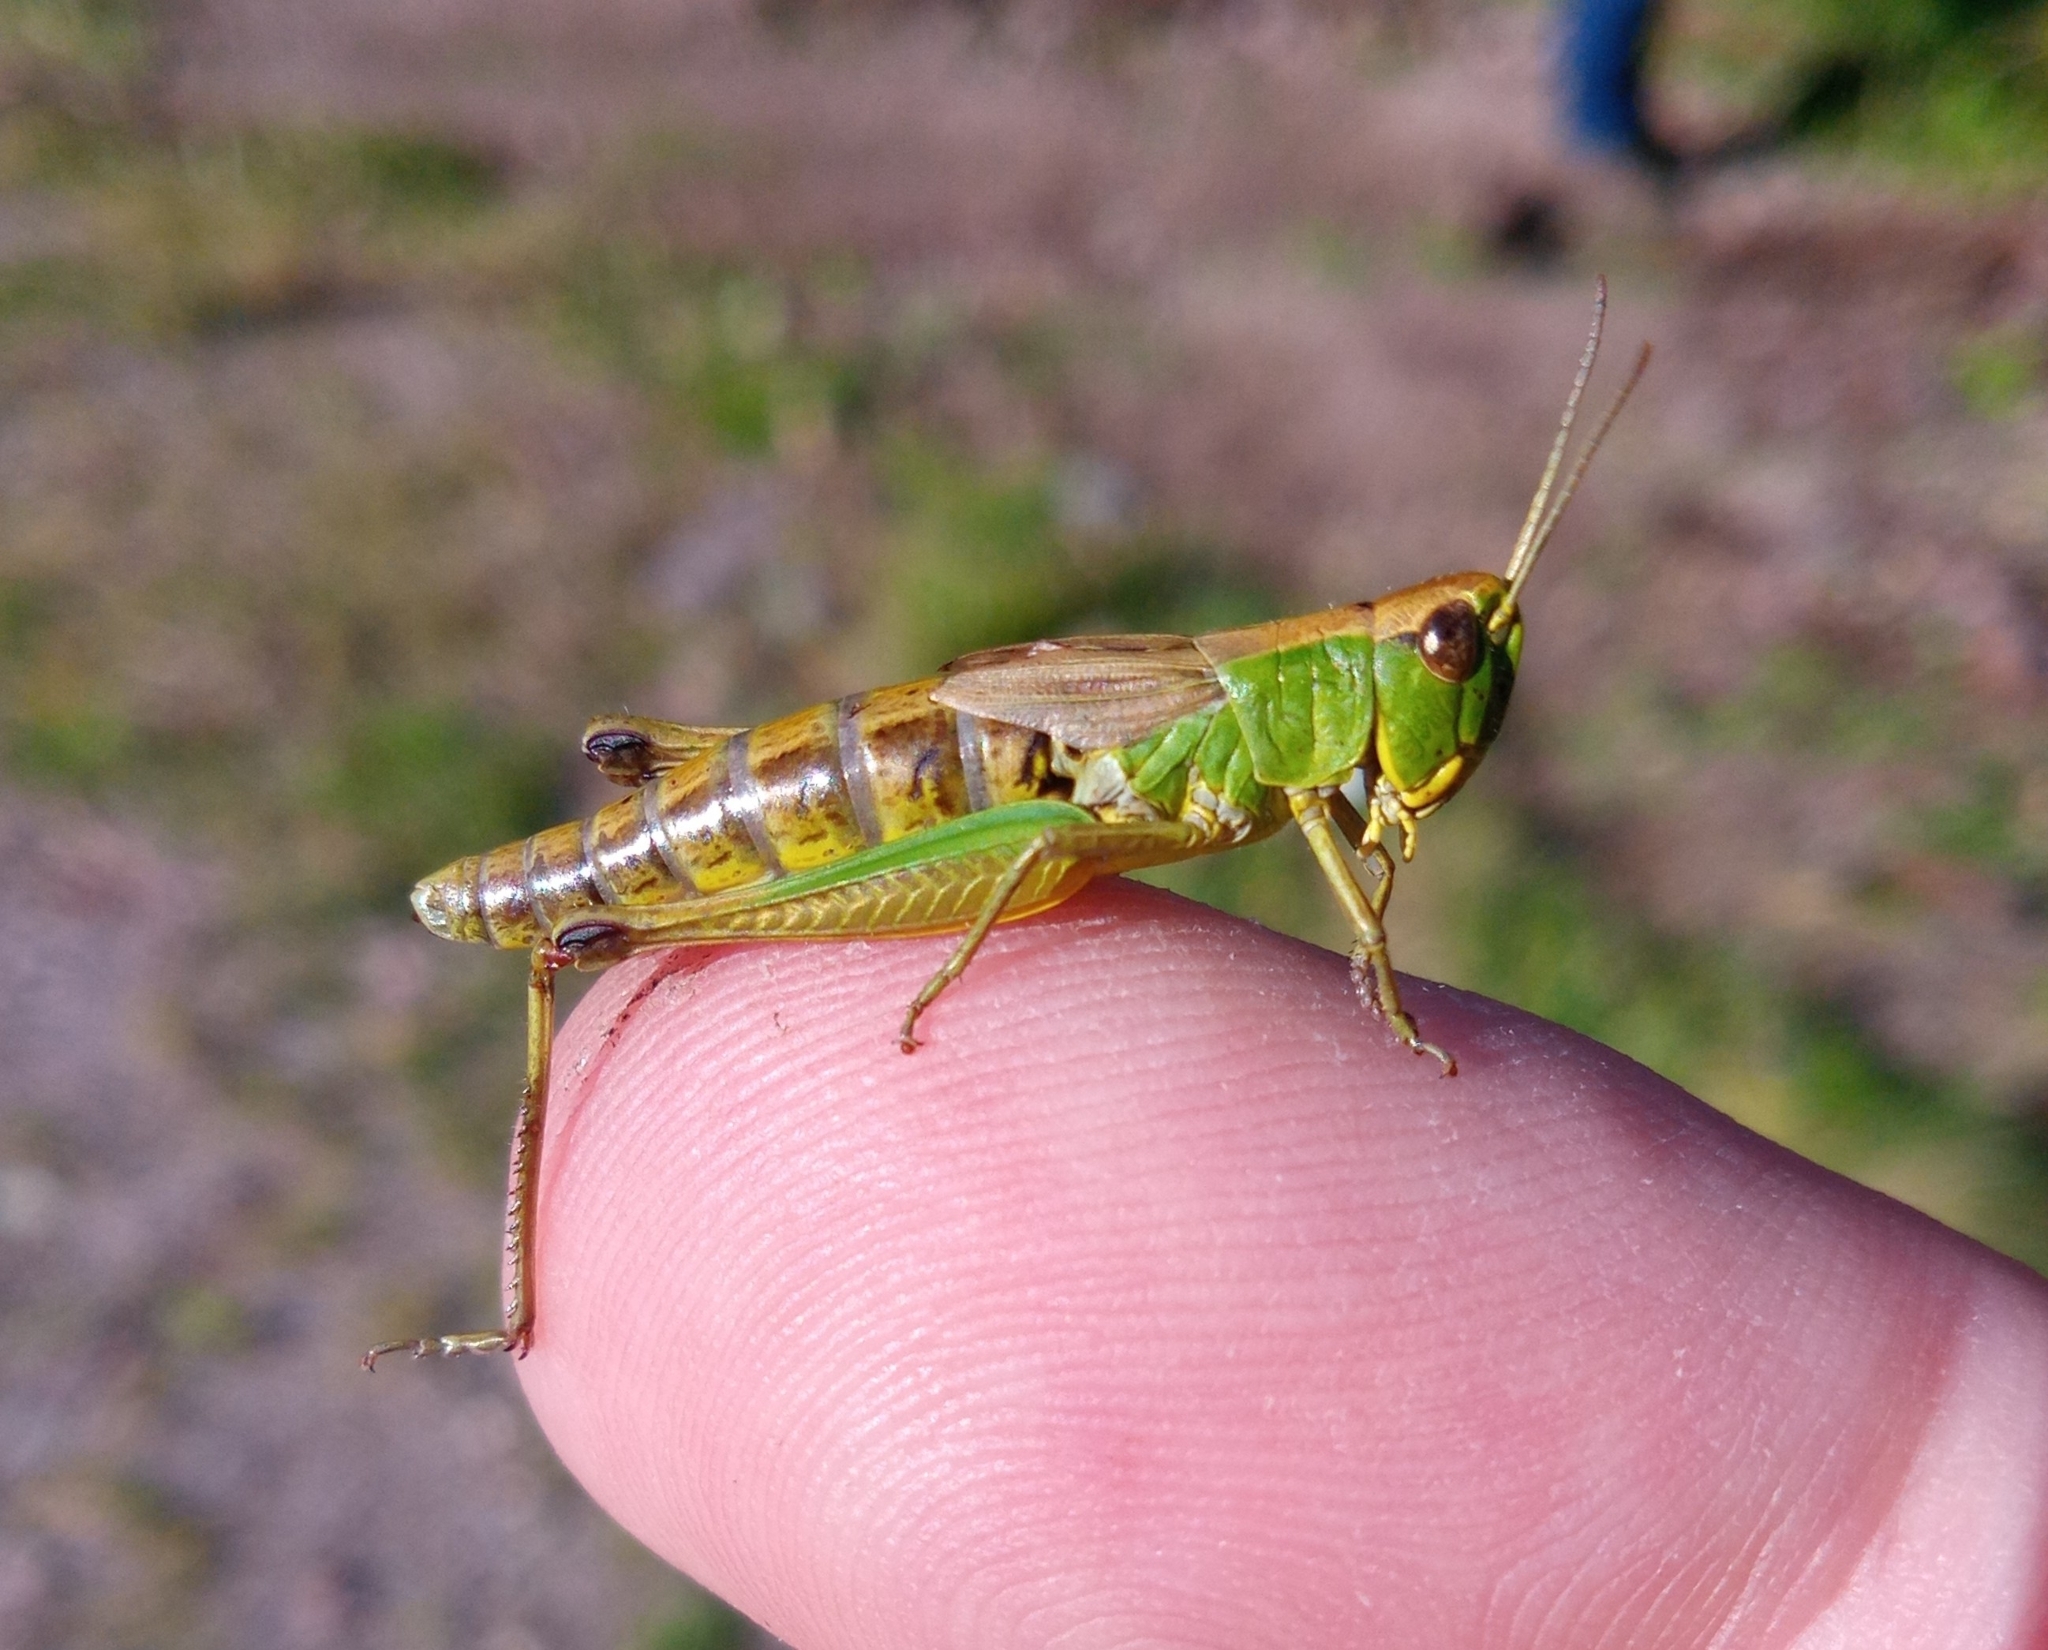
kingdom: Animalia
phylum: Arthropoda
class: Insecta
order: Orthoptera
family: Acrididae
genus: Pseudochorthippus
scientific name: Pseudochorthippus parallelus
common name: Meadow grasshopper
